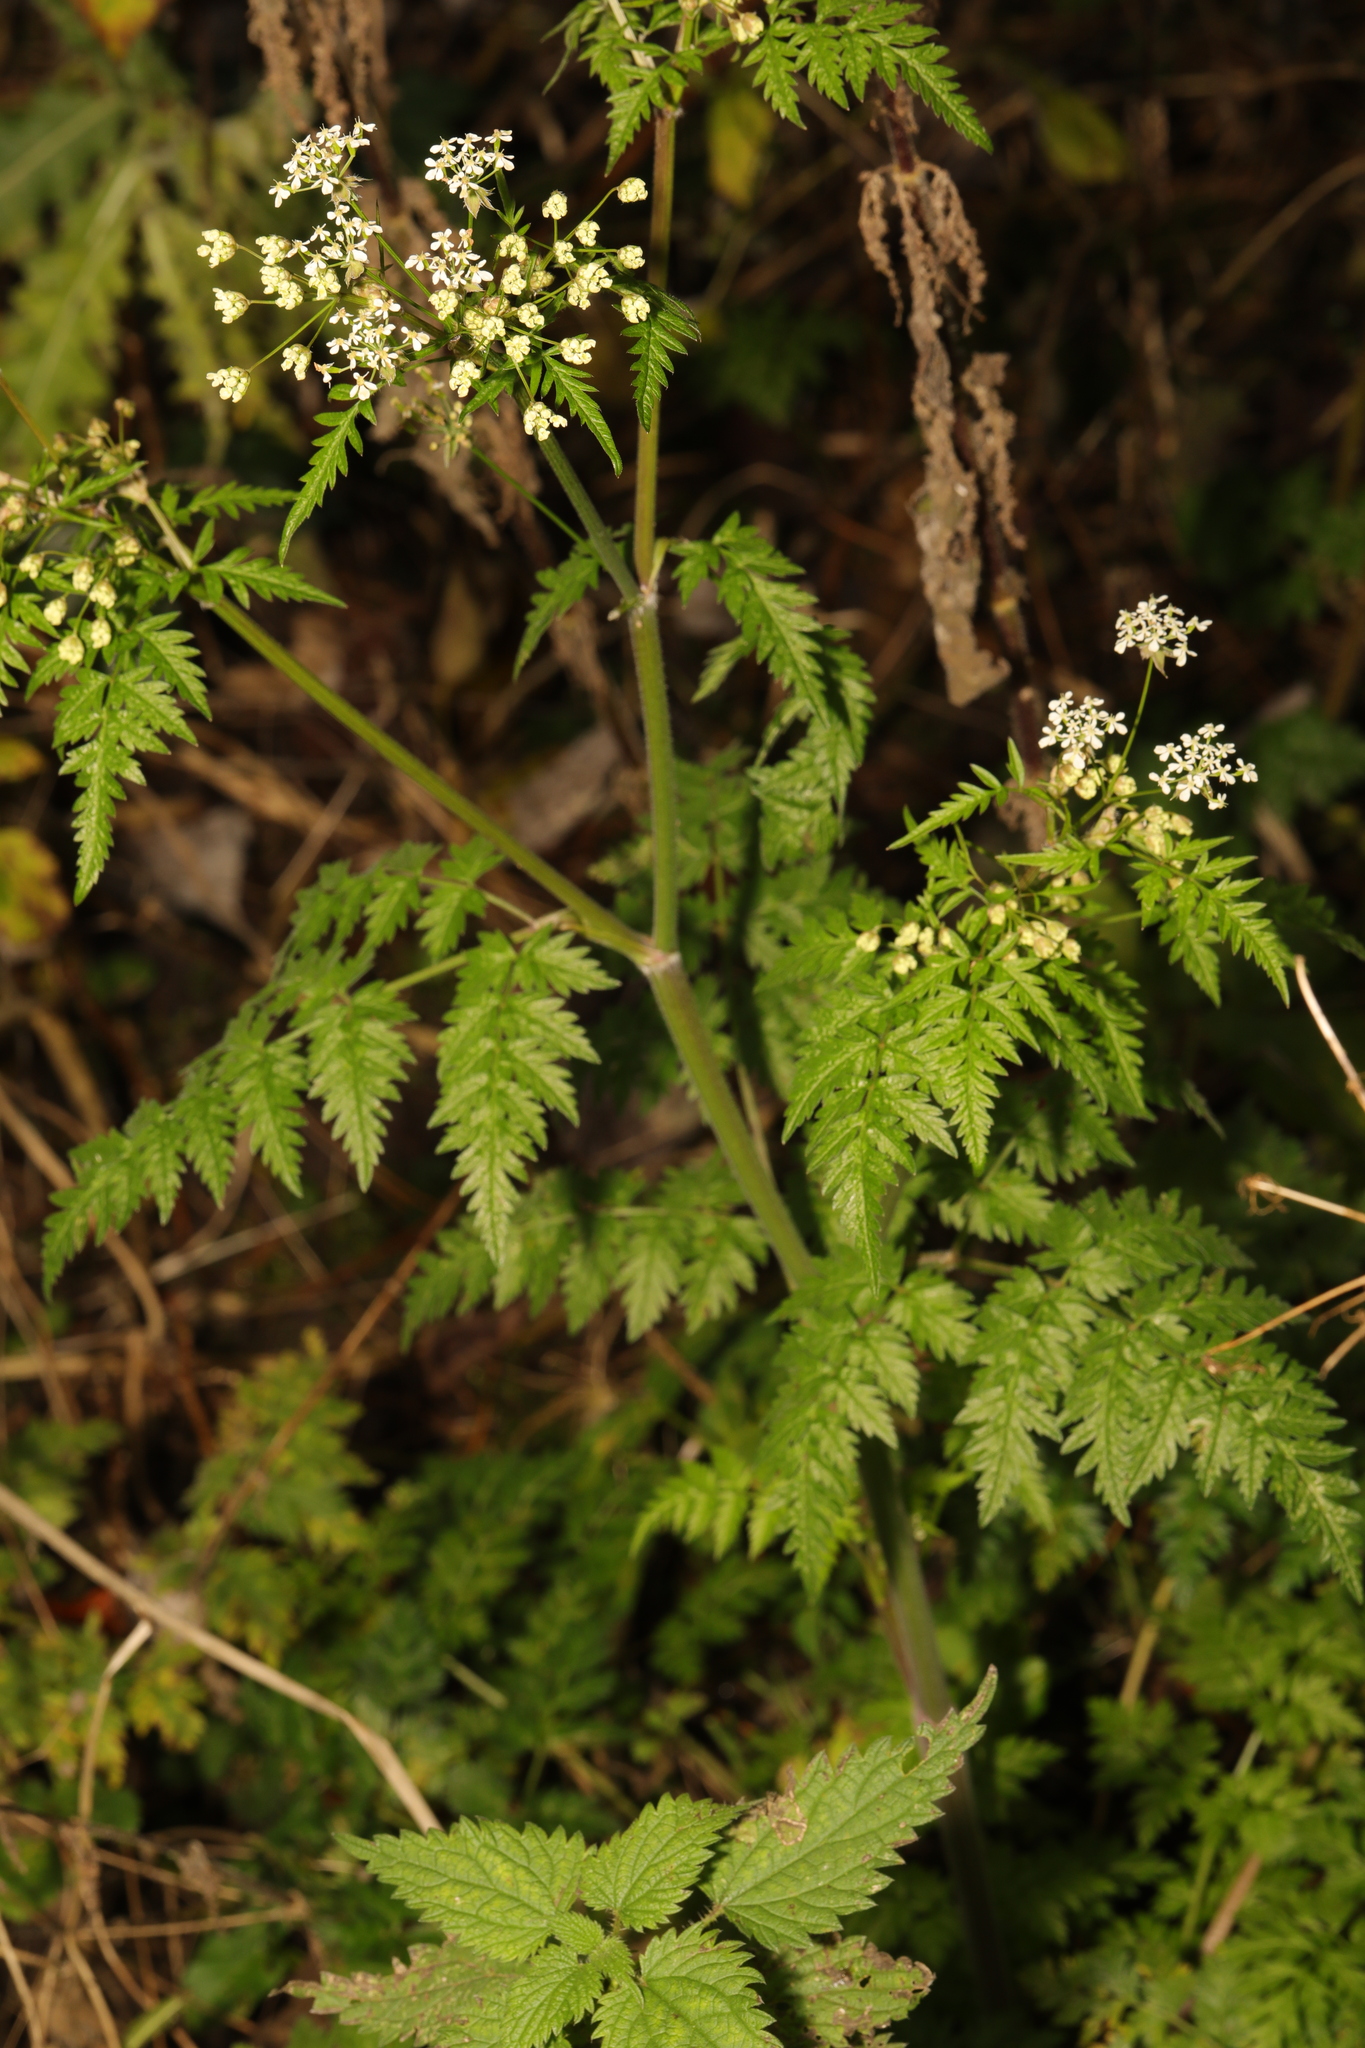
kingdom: Plantae
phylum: Tracheophyta
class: Magnoliopsida
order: Apiales
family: Apiaceae
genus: Anthriscus
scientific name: Anthriscus sylvestris
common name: Cow parsley
